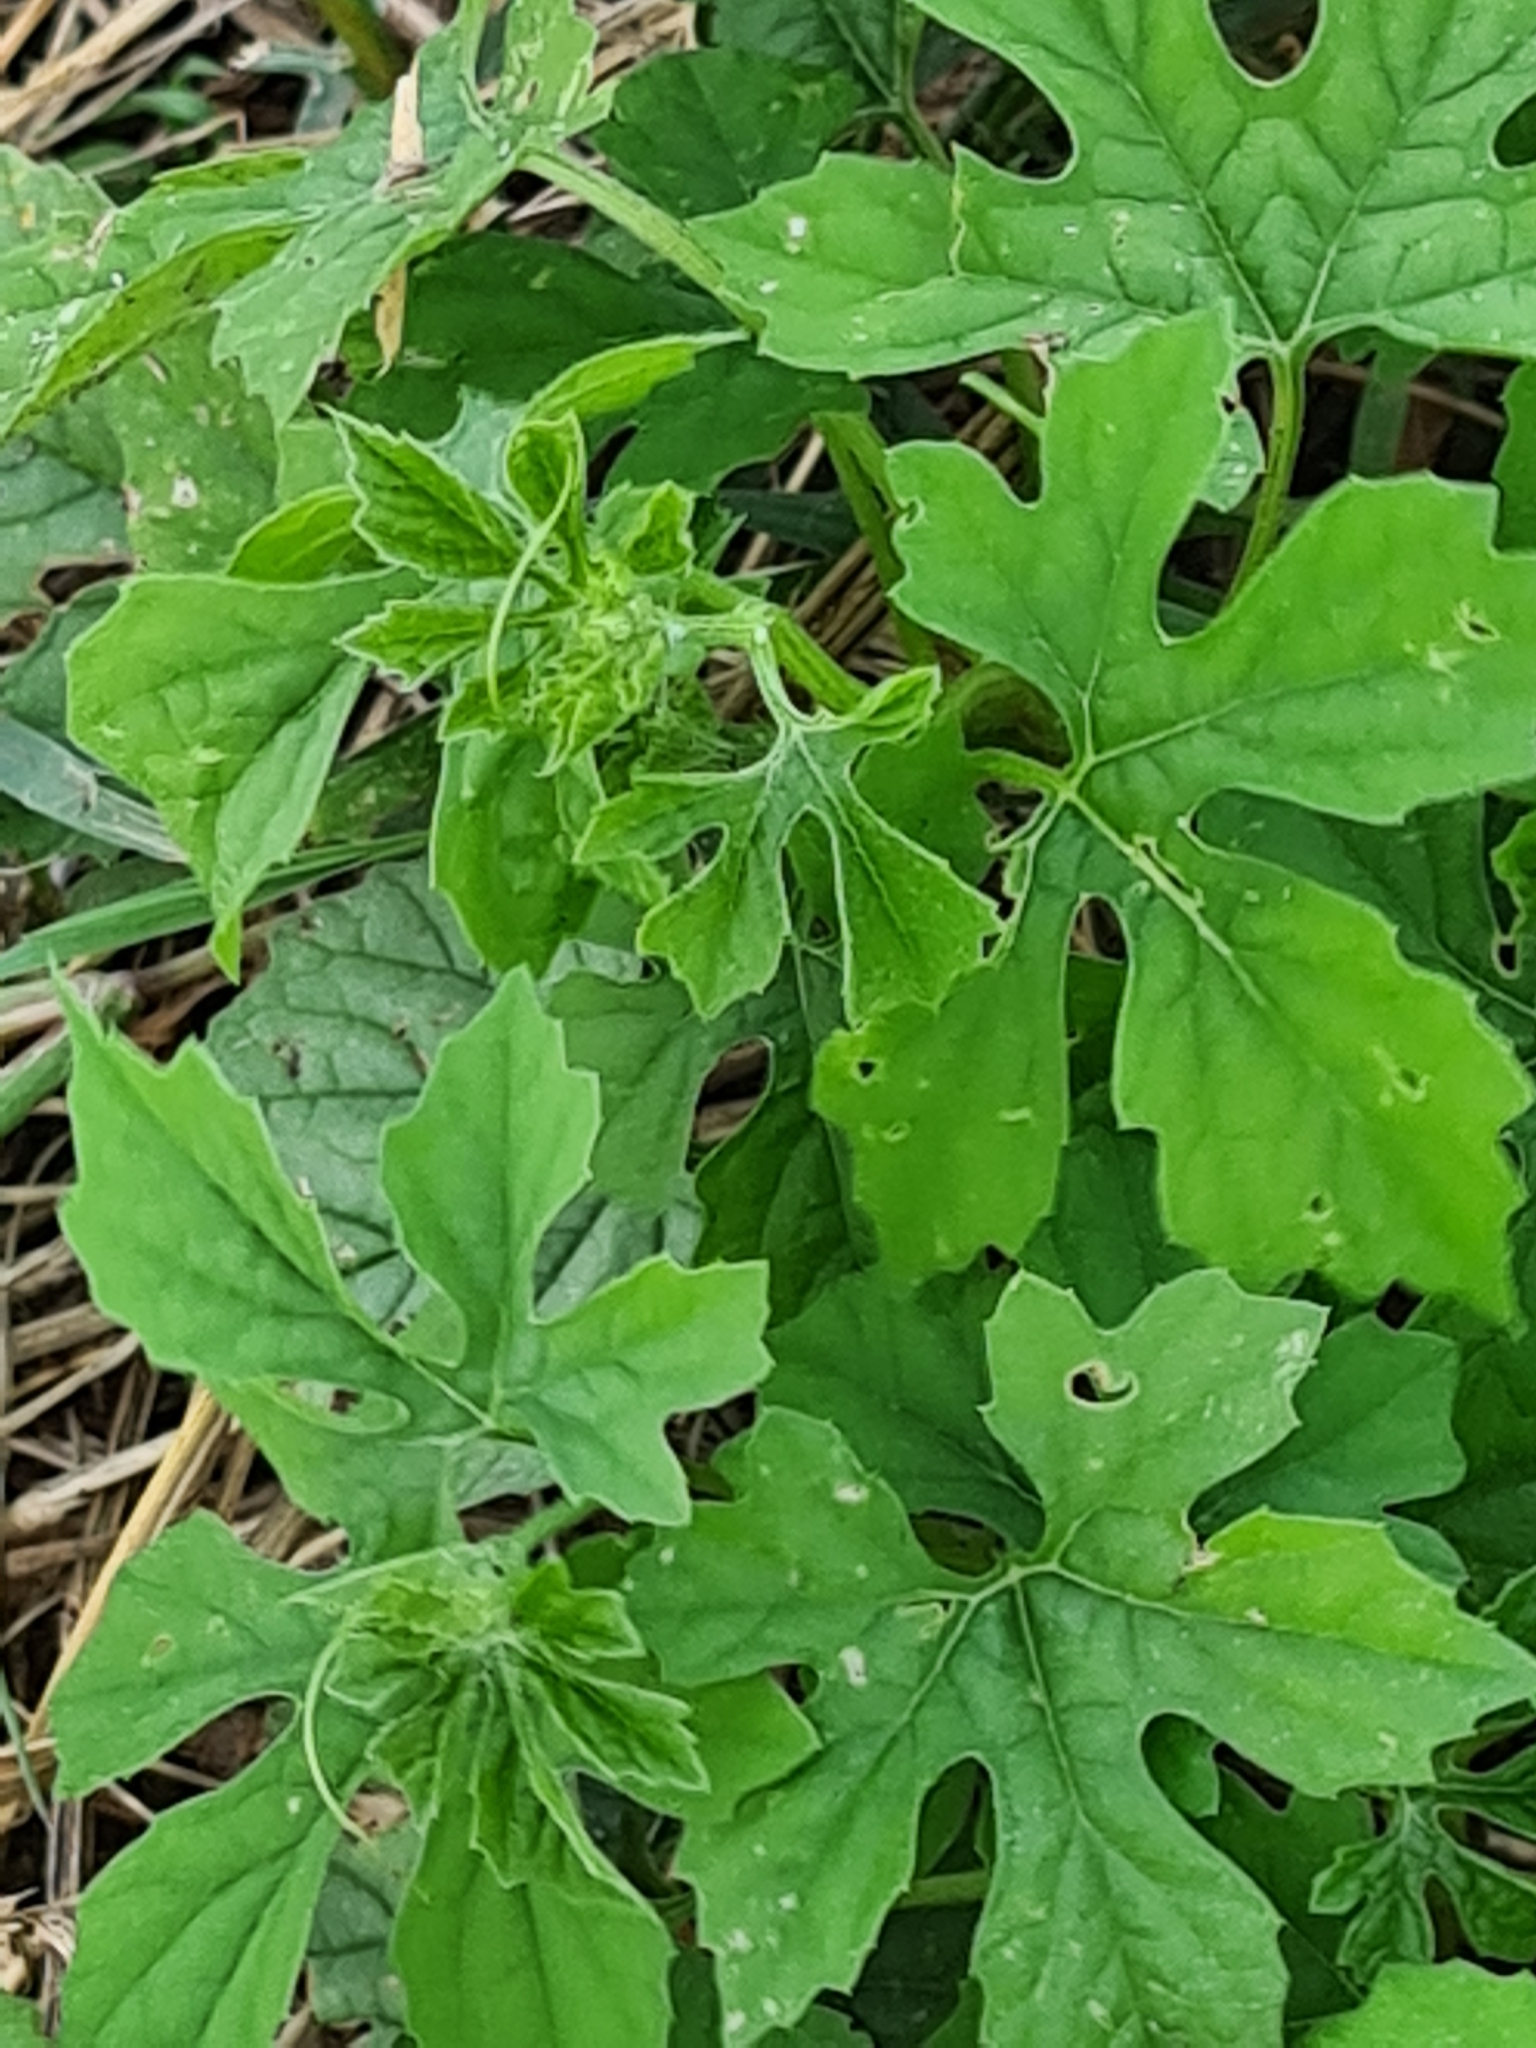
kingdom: Plantae
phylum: Tracheophyta
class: Magnoliopsida
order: Cucurbitales
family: Cucurbitaceae
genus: Momordica
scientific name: Momordica charantia
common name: Balsampear
